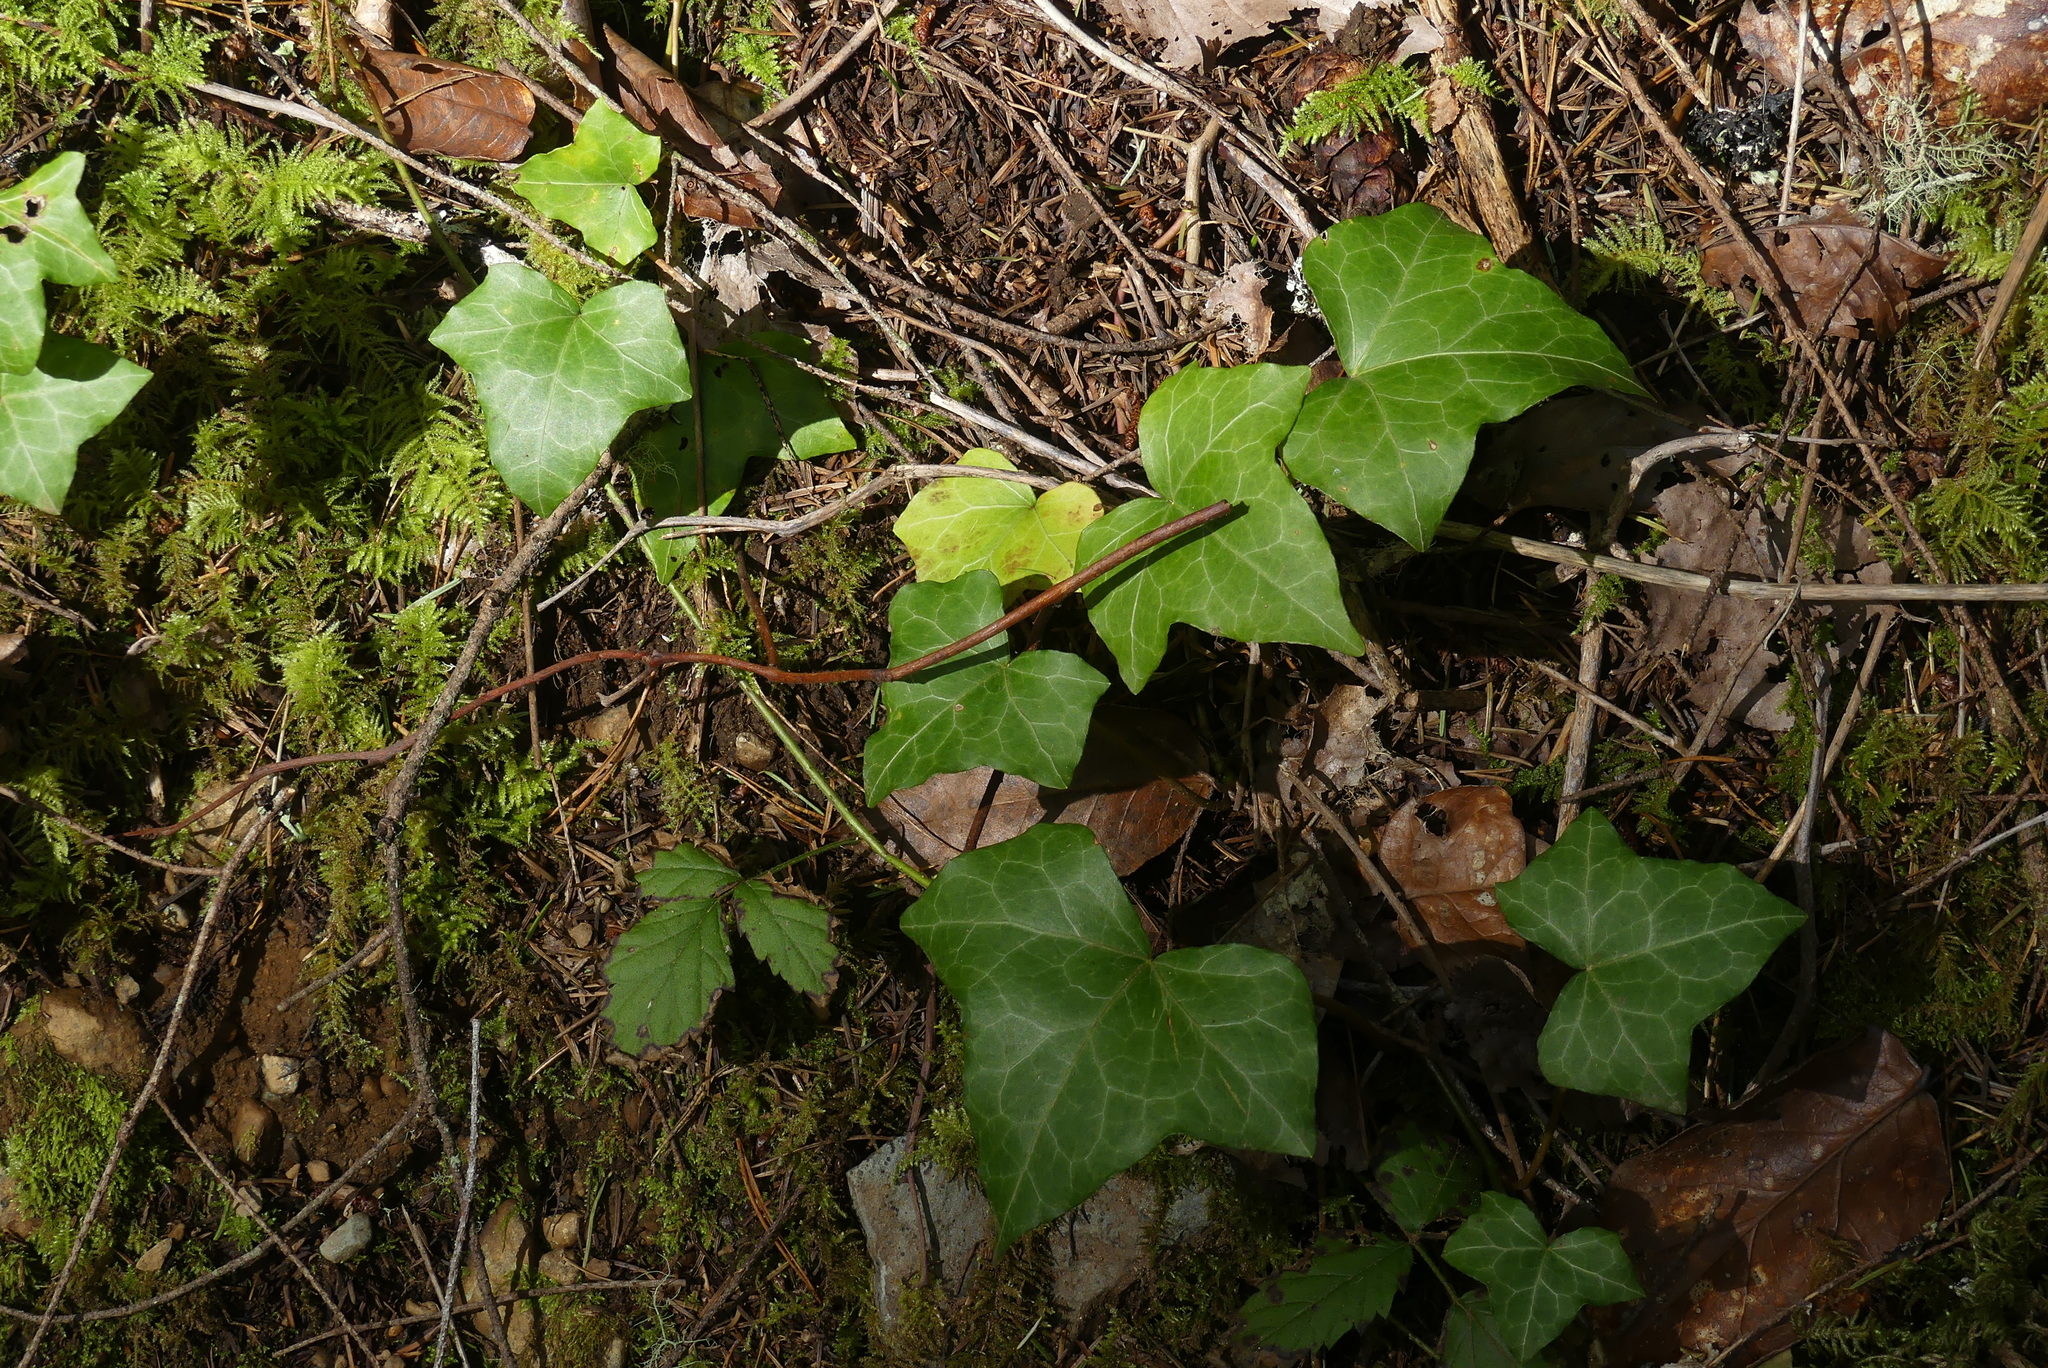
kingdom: Plantae
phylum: Tracheophyta
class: Magnoliopsida
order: Apiales
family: Araliaceae
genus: Hedera
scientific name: Hedera helix
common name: Ivy
